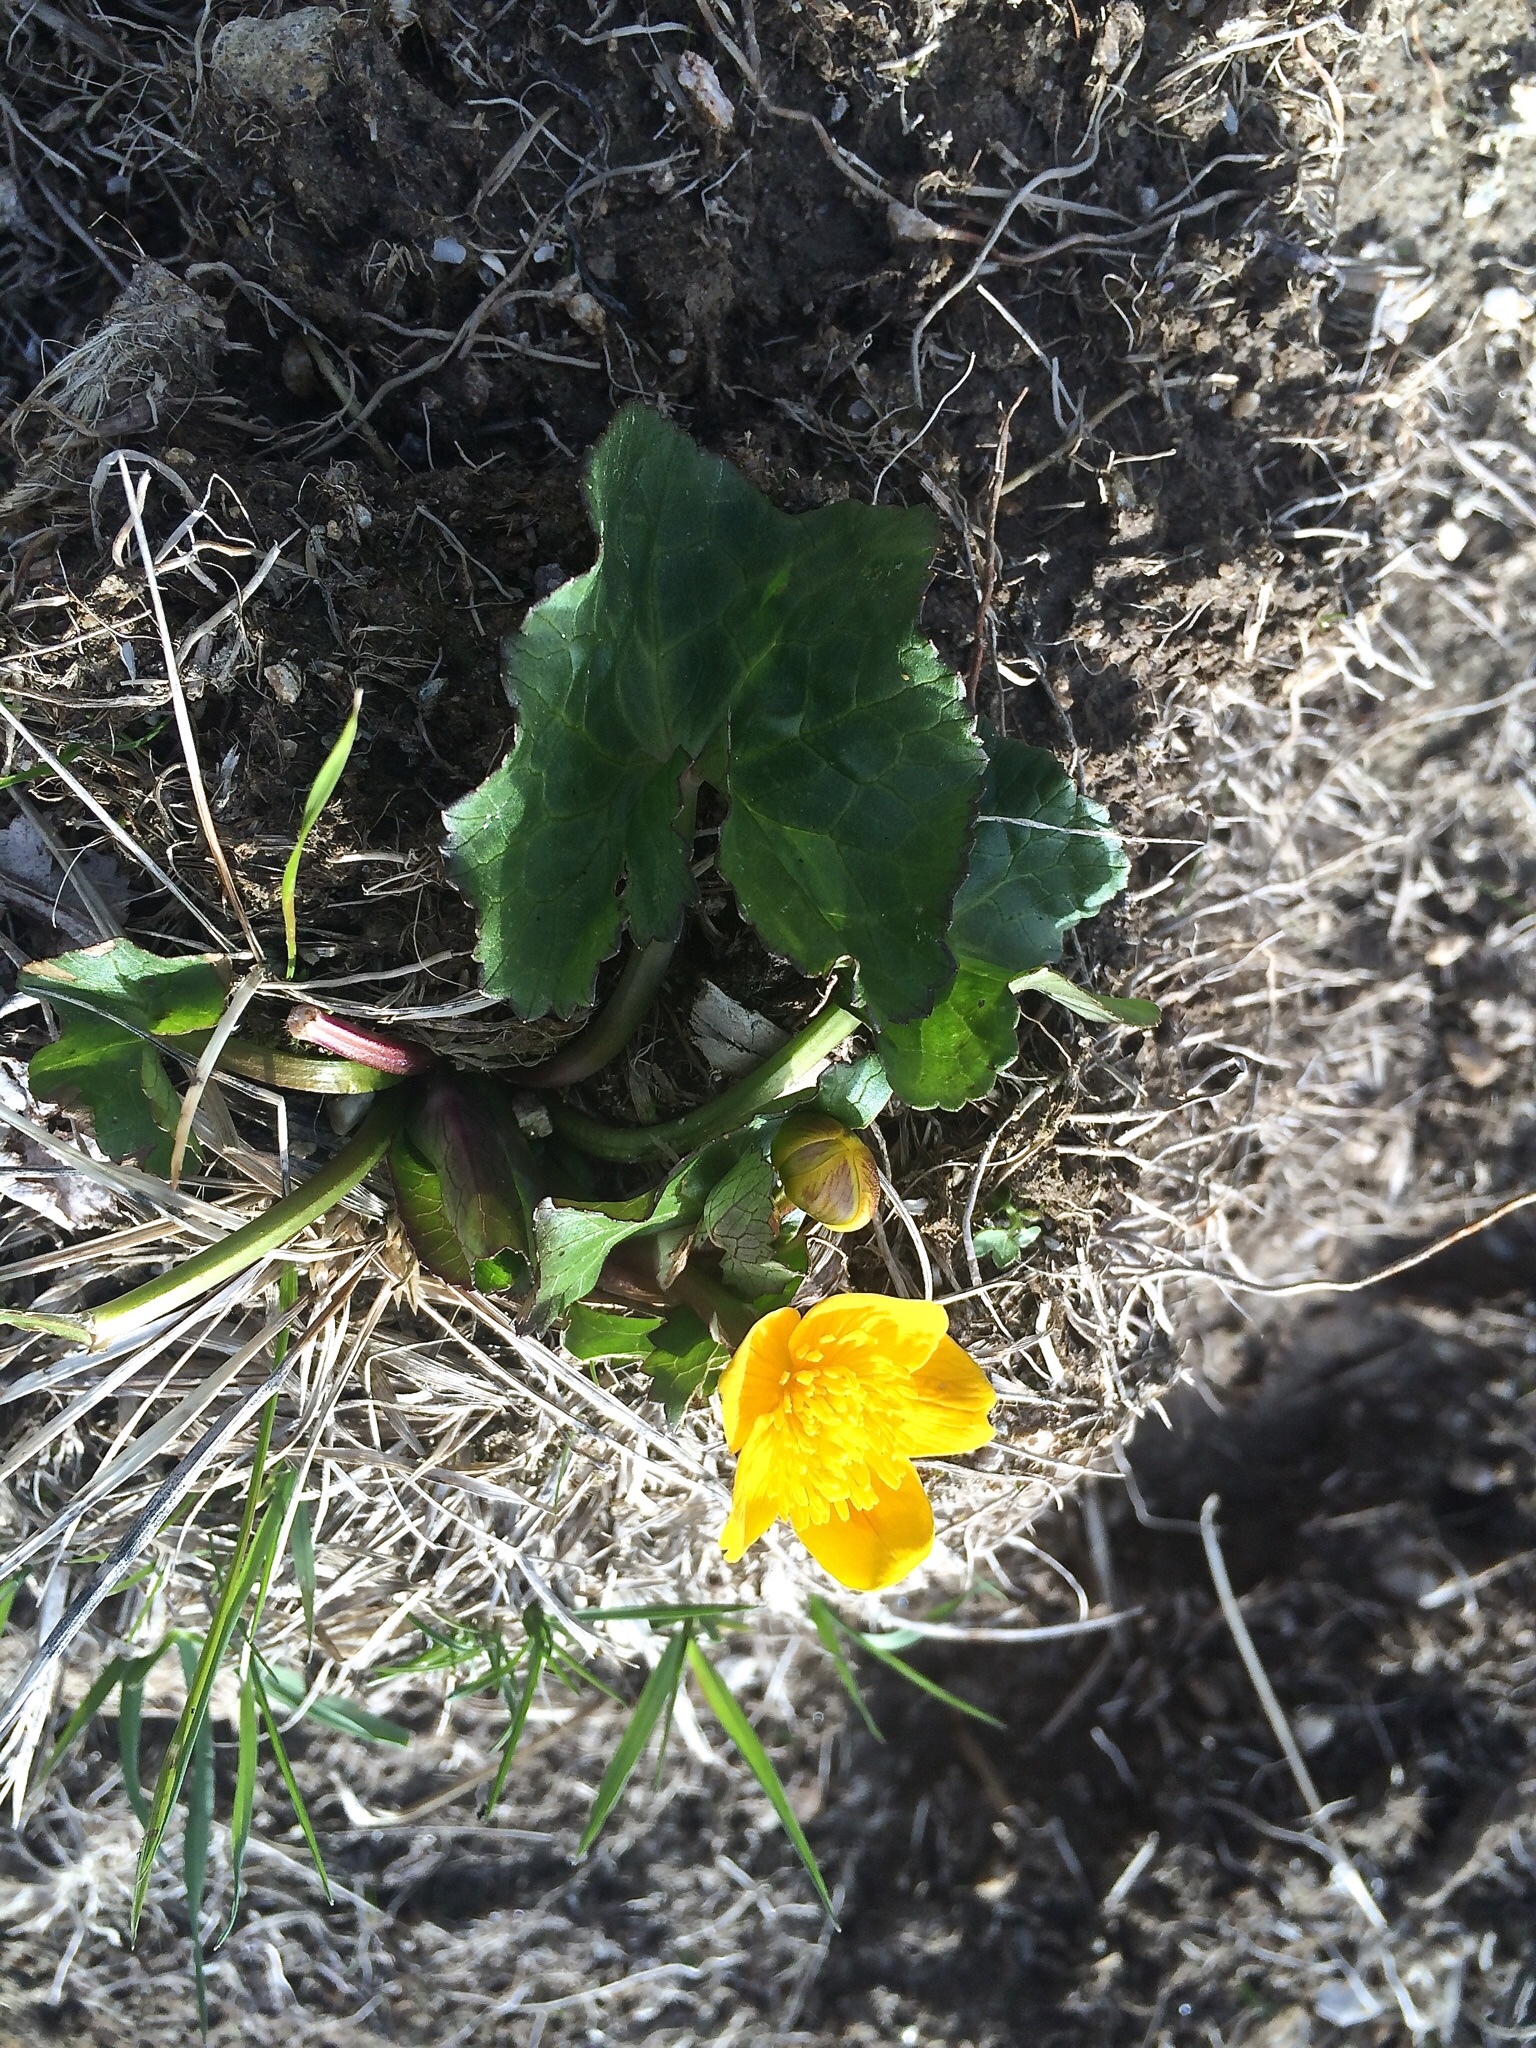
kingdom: Plantae
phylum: Tracheophyta
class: Magnoliopsida
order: Ranunculales
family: Ranunculaceae
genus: Caltha
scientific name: Caltha palustris
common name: Marsh marigold
